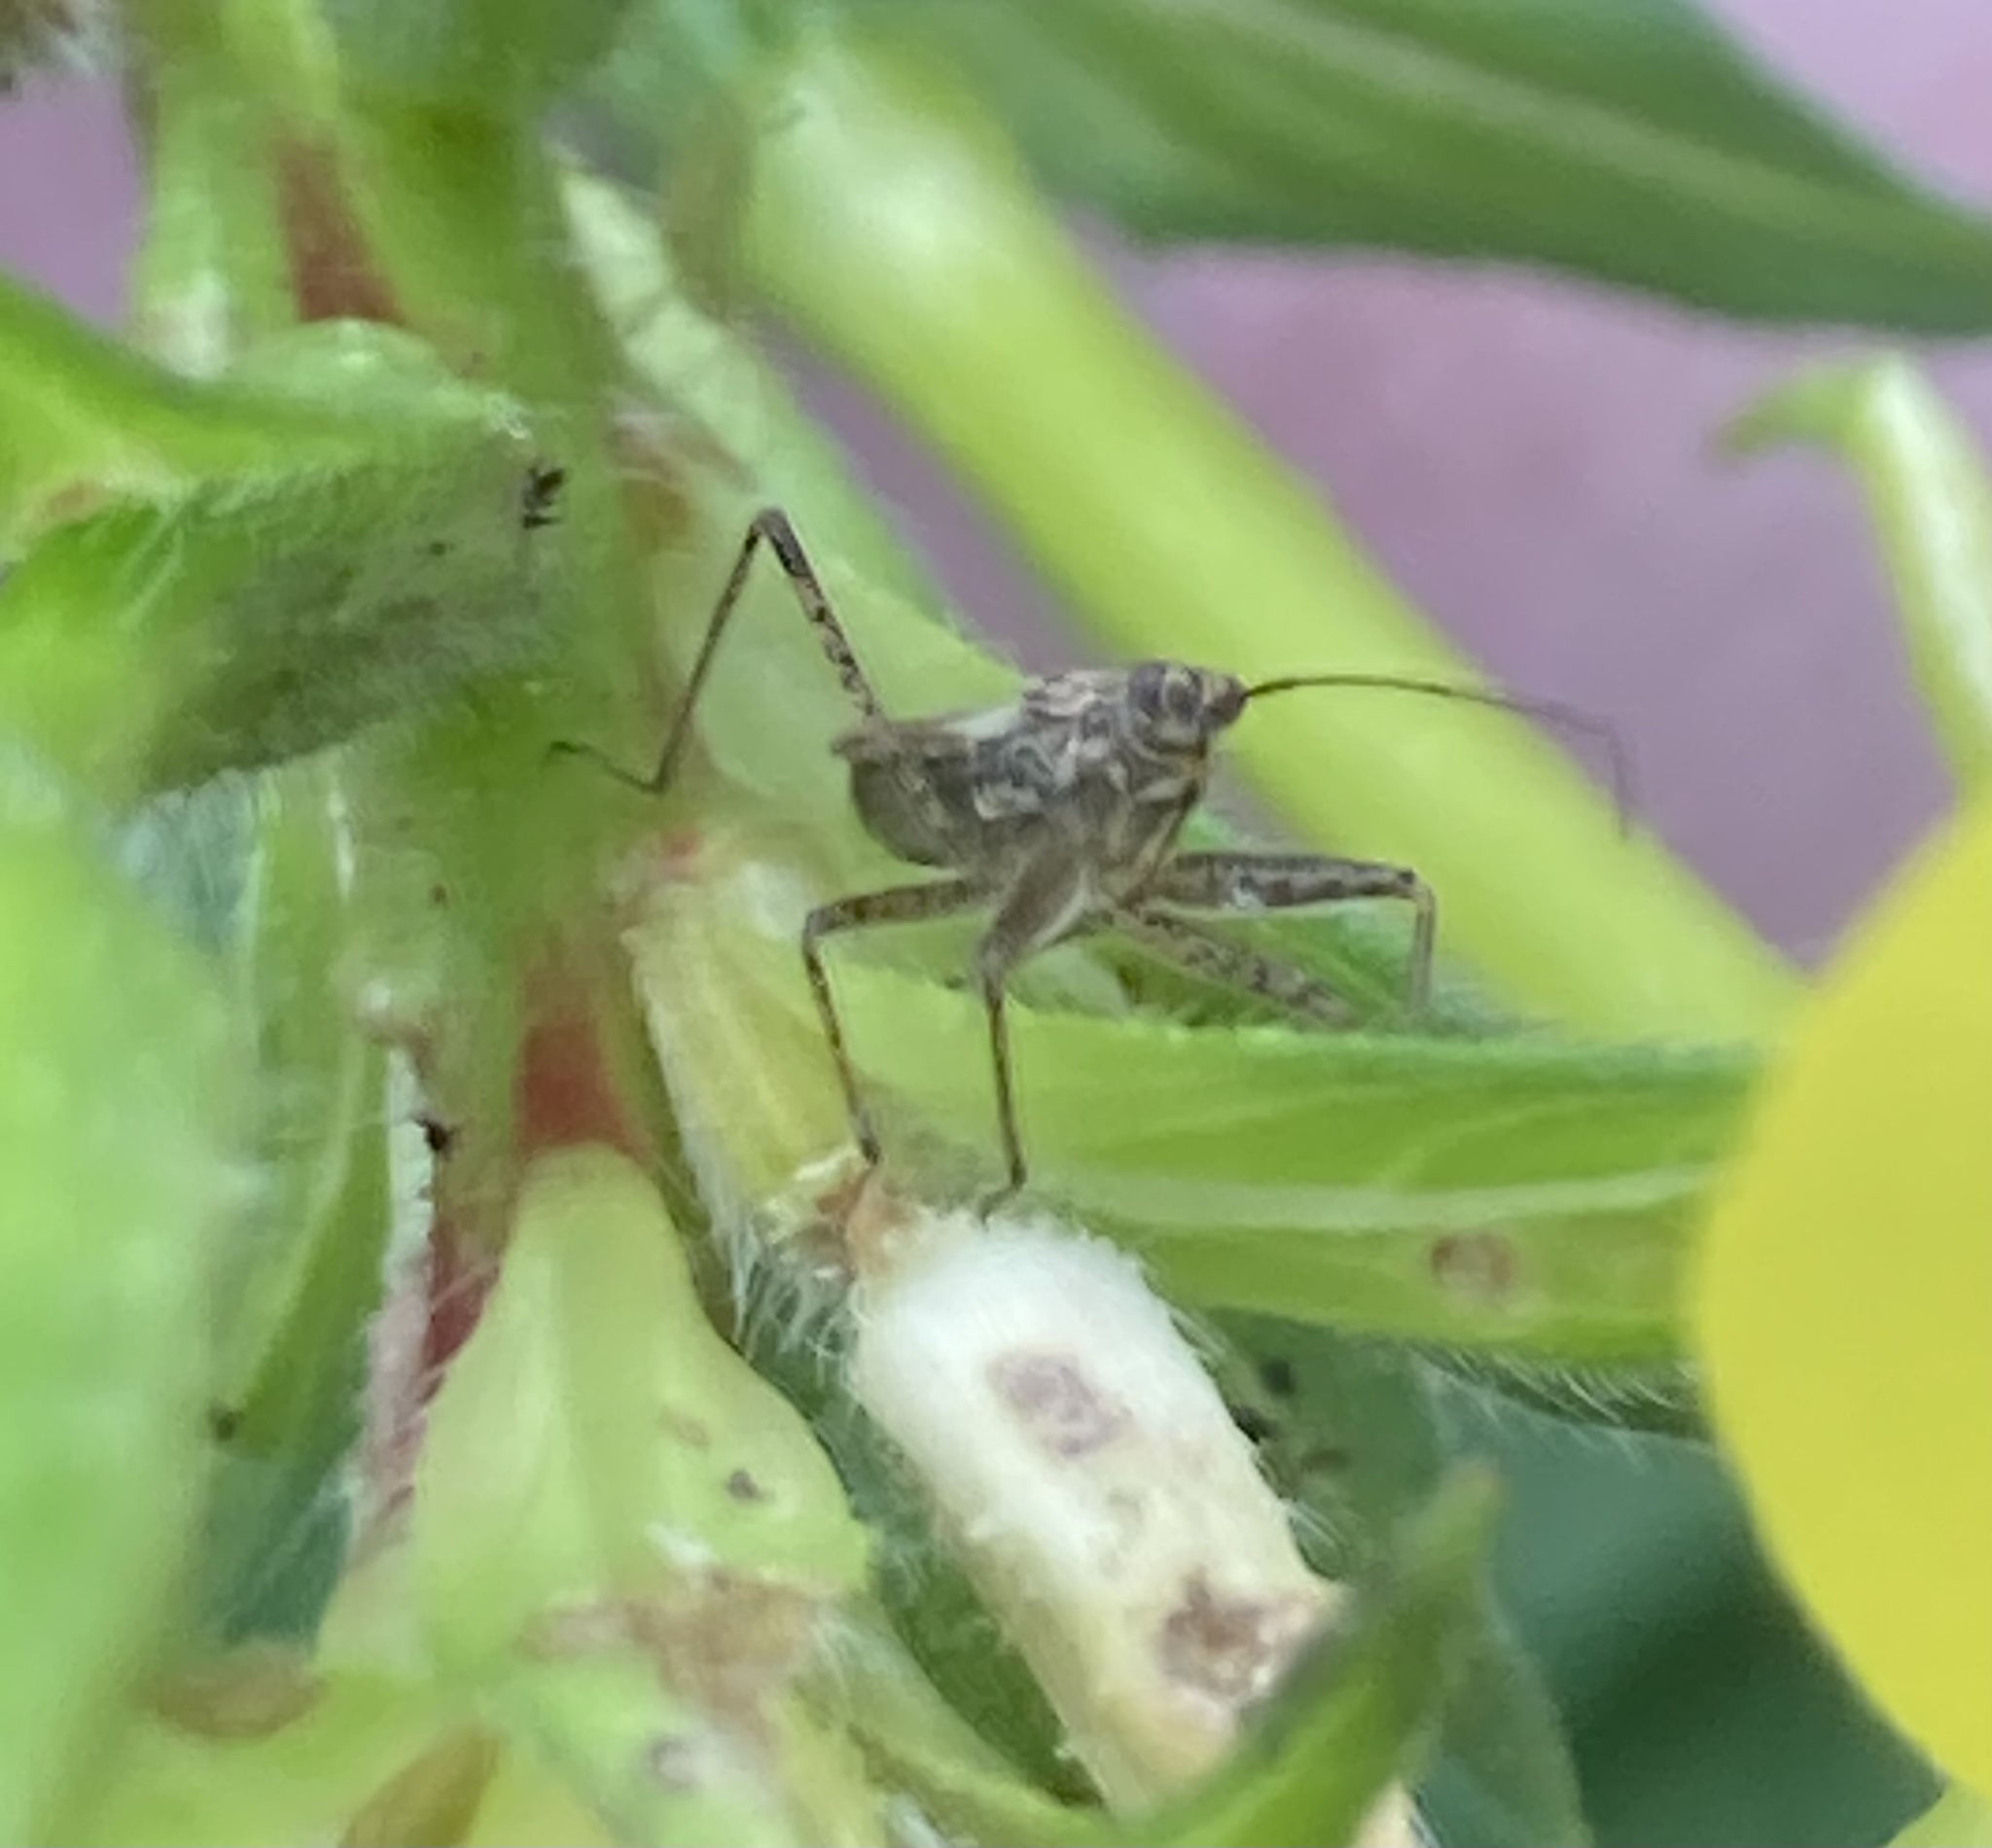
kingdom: Animalia
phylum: Arthropoda
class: Insecta
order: Hemiptera
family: Nabidae
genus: Nabis
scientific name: Nabis roseipennis
